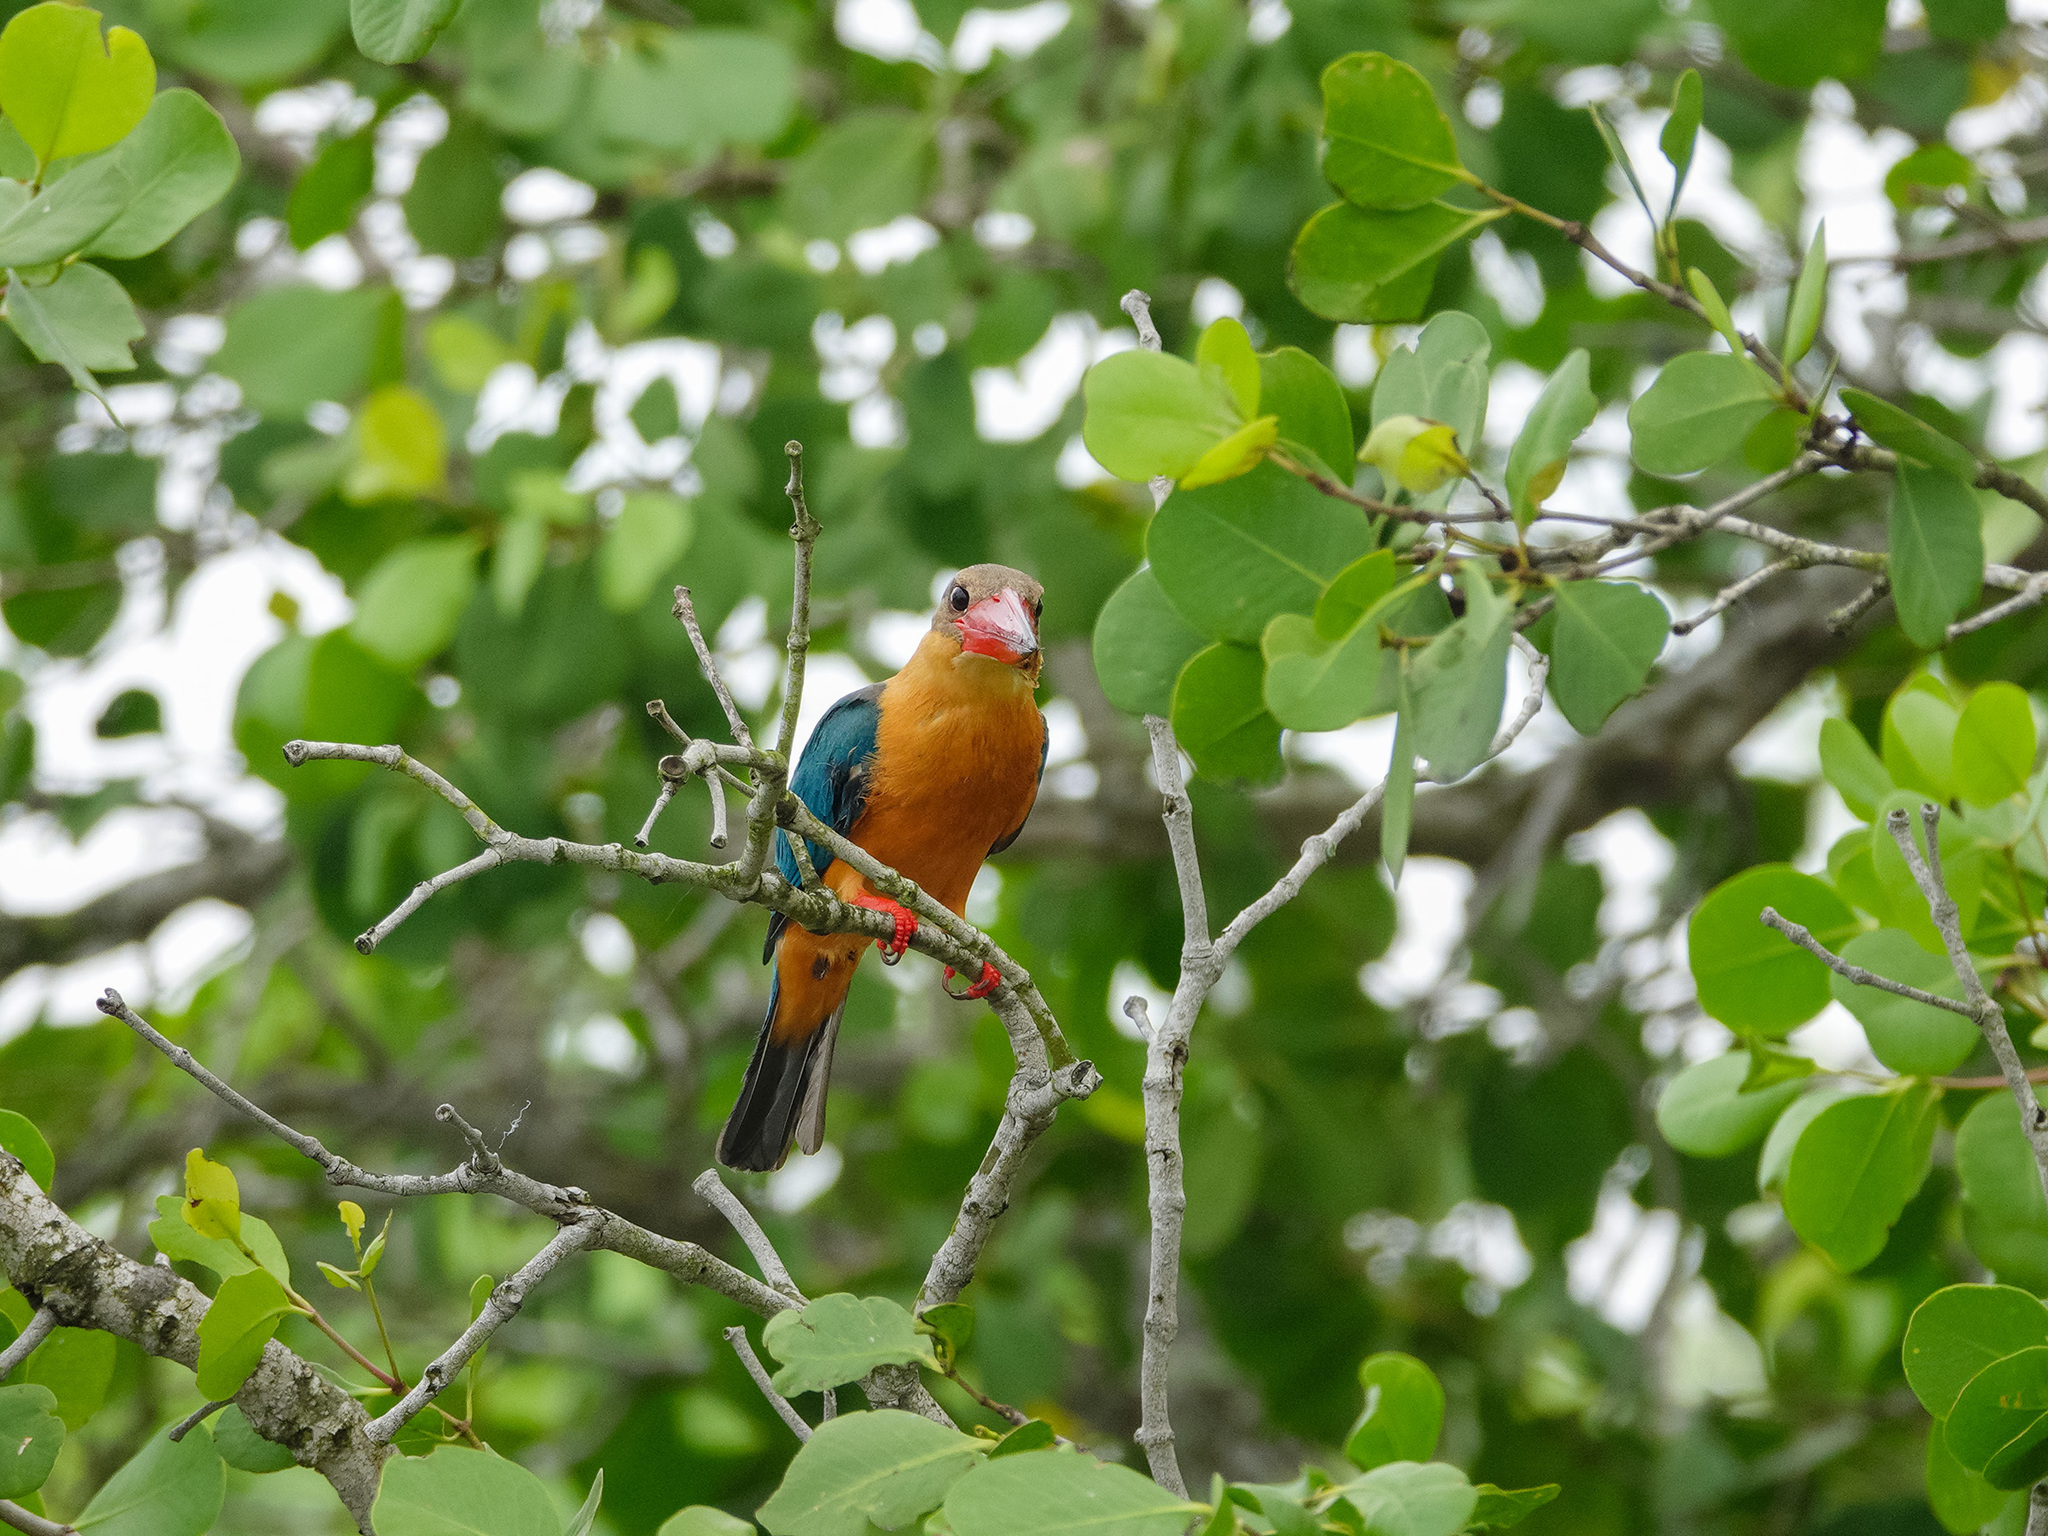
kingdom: Animalia
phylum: Chordata
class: Aves
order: Coraciiformes
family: Alcedinidae
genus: Pelargopsis
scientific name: Pelargopsis capensis
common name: Stork-billed kingfisher
